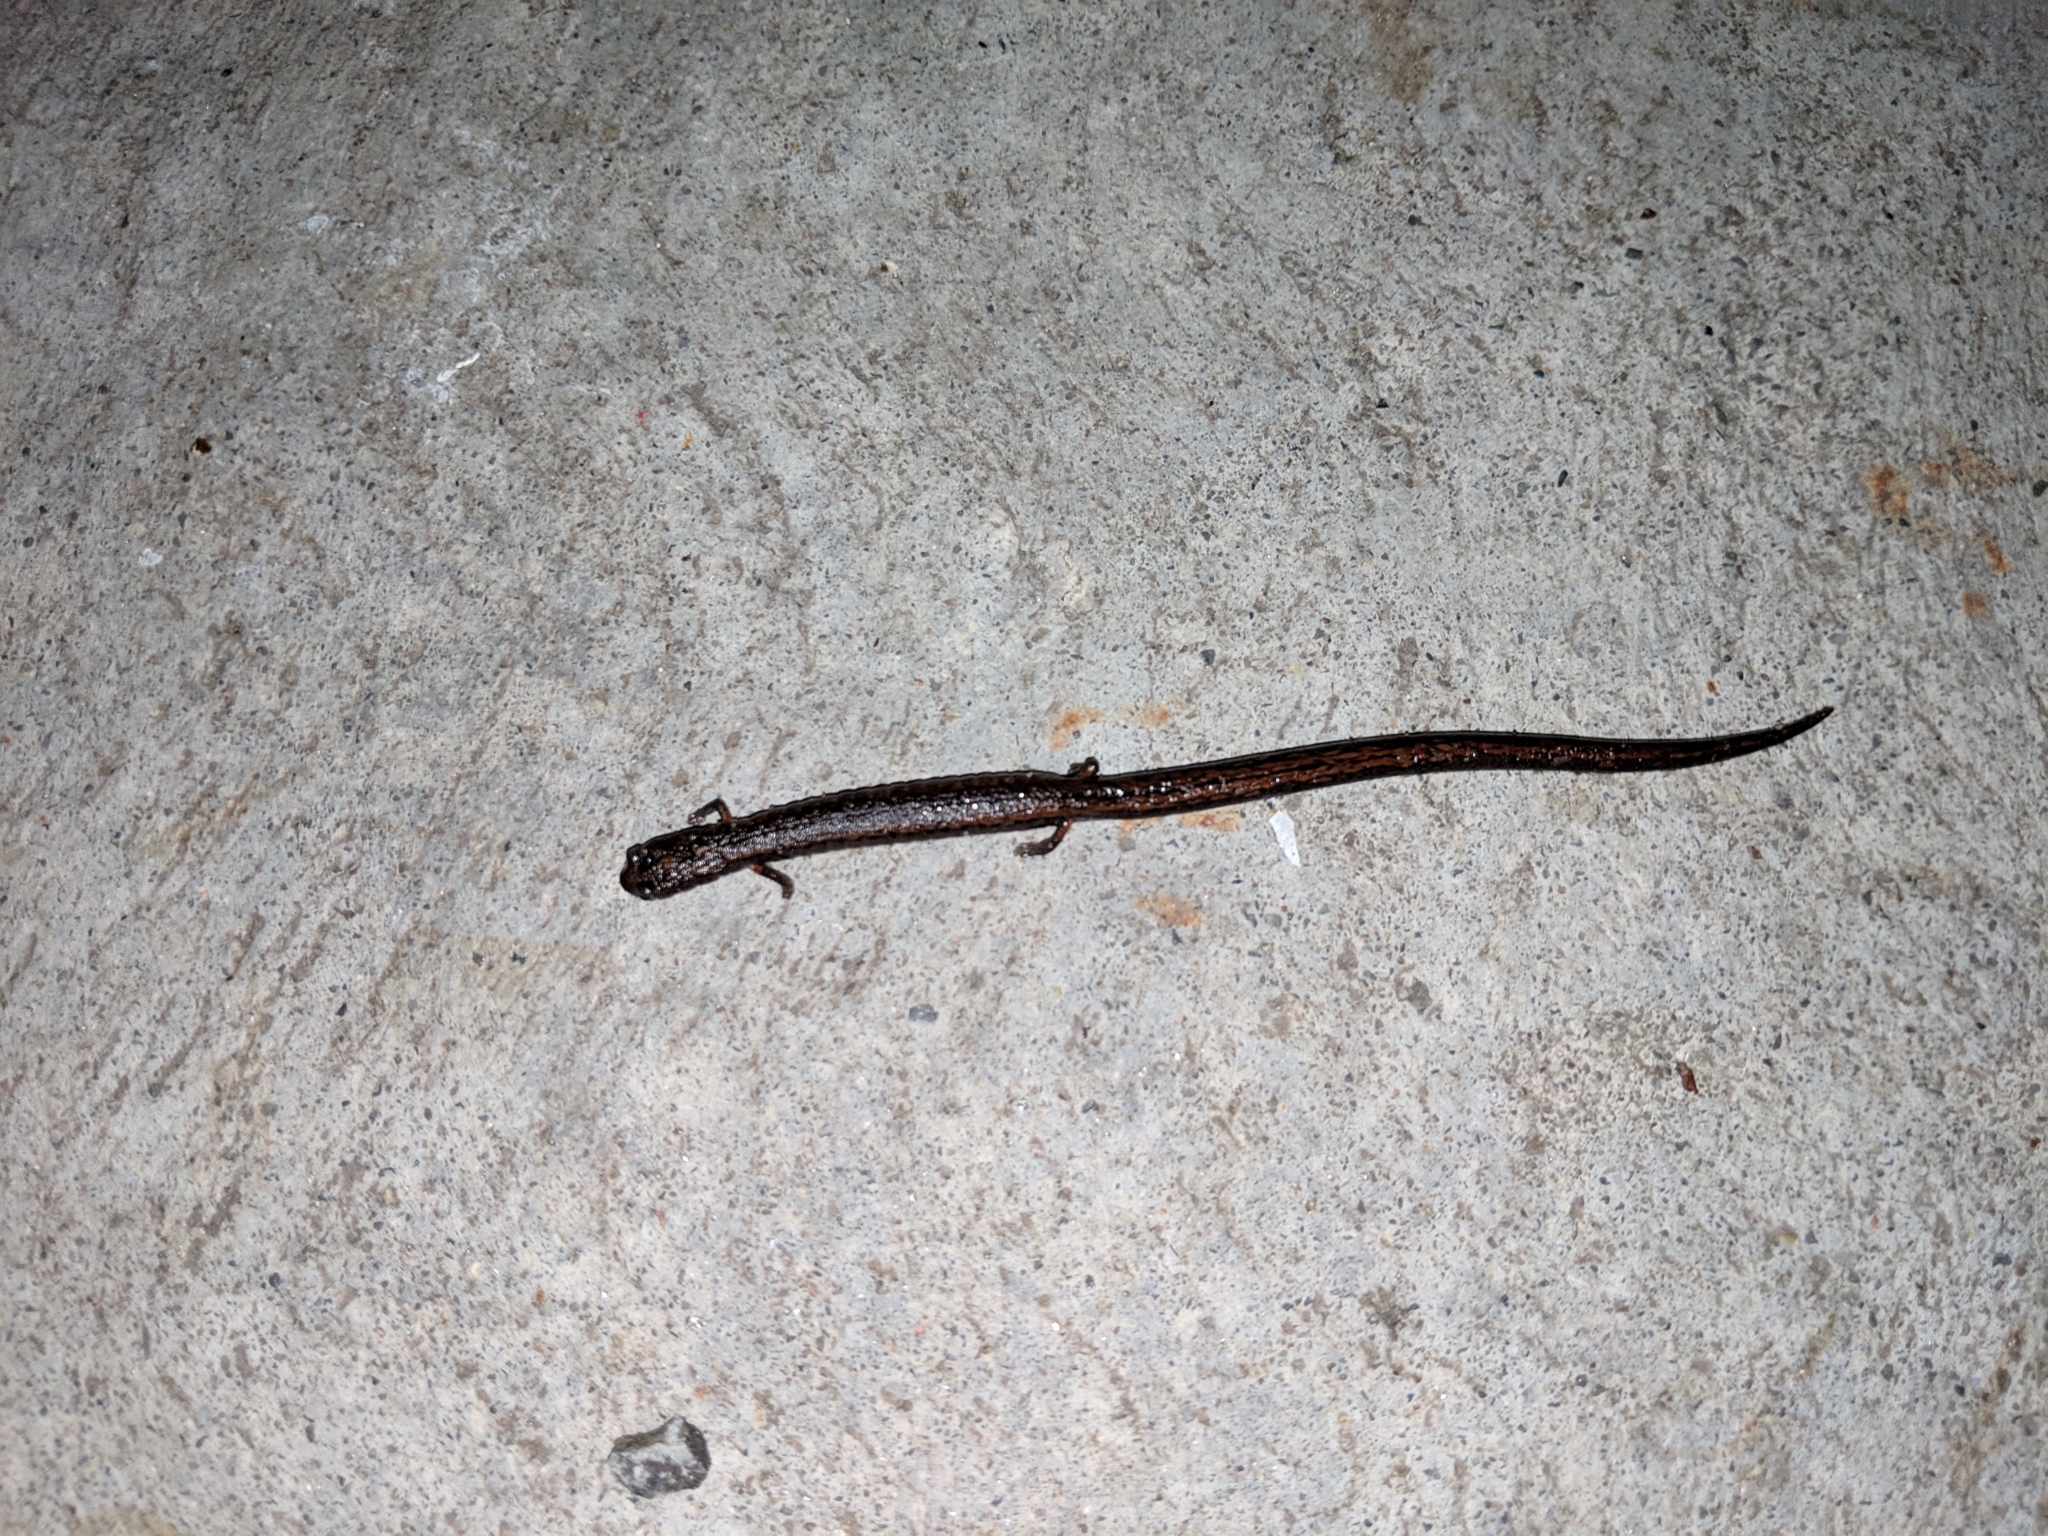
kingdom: Animalia
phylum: Chordata
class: Amphibia
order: Caudata
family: Plethodontidae
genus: Batrachoseps
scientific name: Batrachoseps attenuatus
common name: California slender salamander
